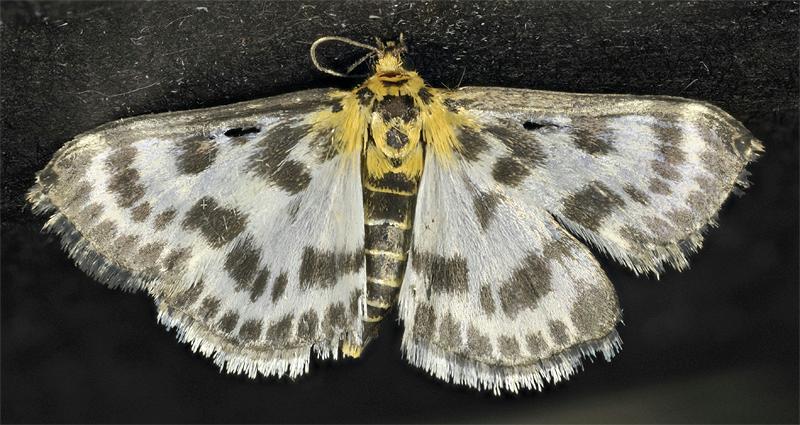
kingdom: Animalia
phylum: Arthropoda
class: Insecta
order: Lepidoptera
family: Crambidae
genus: Anania
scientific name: Anania hortulata
